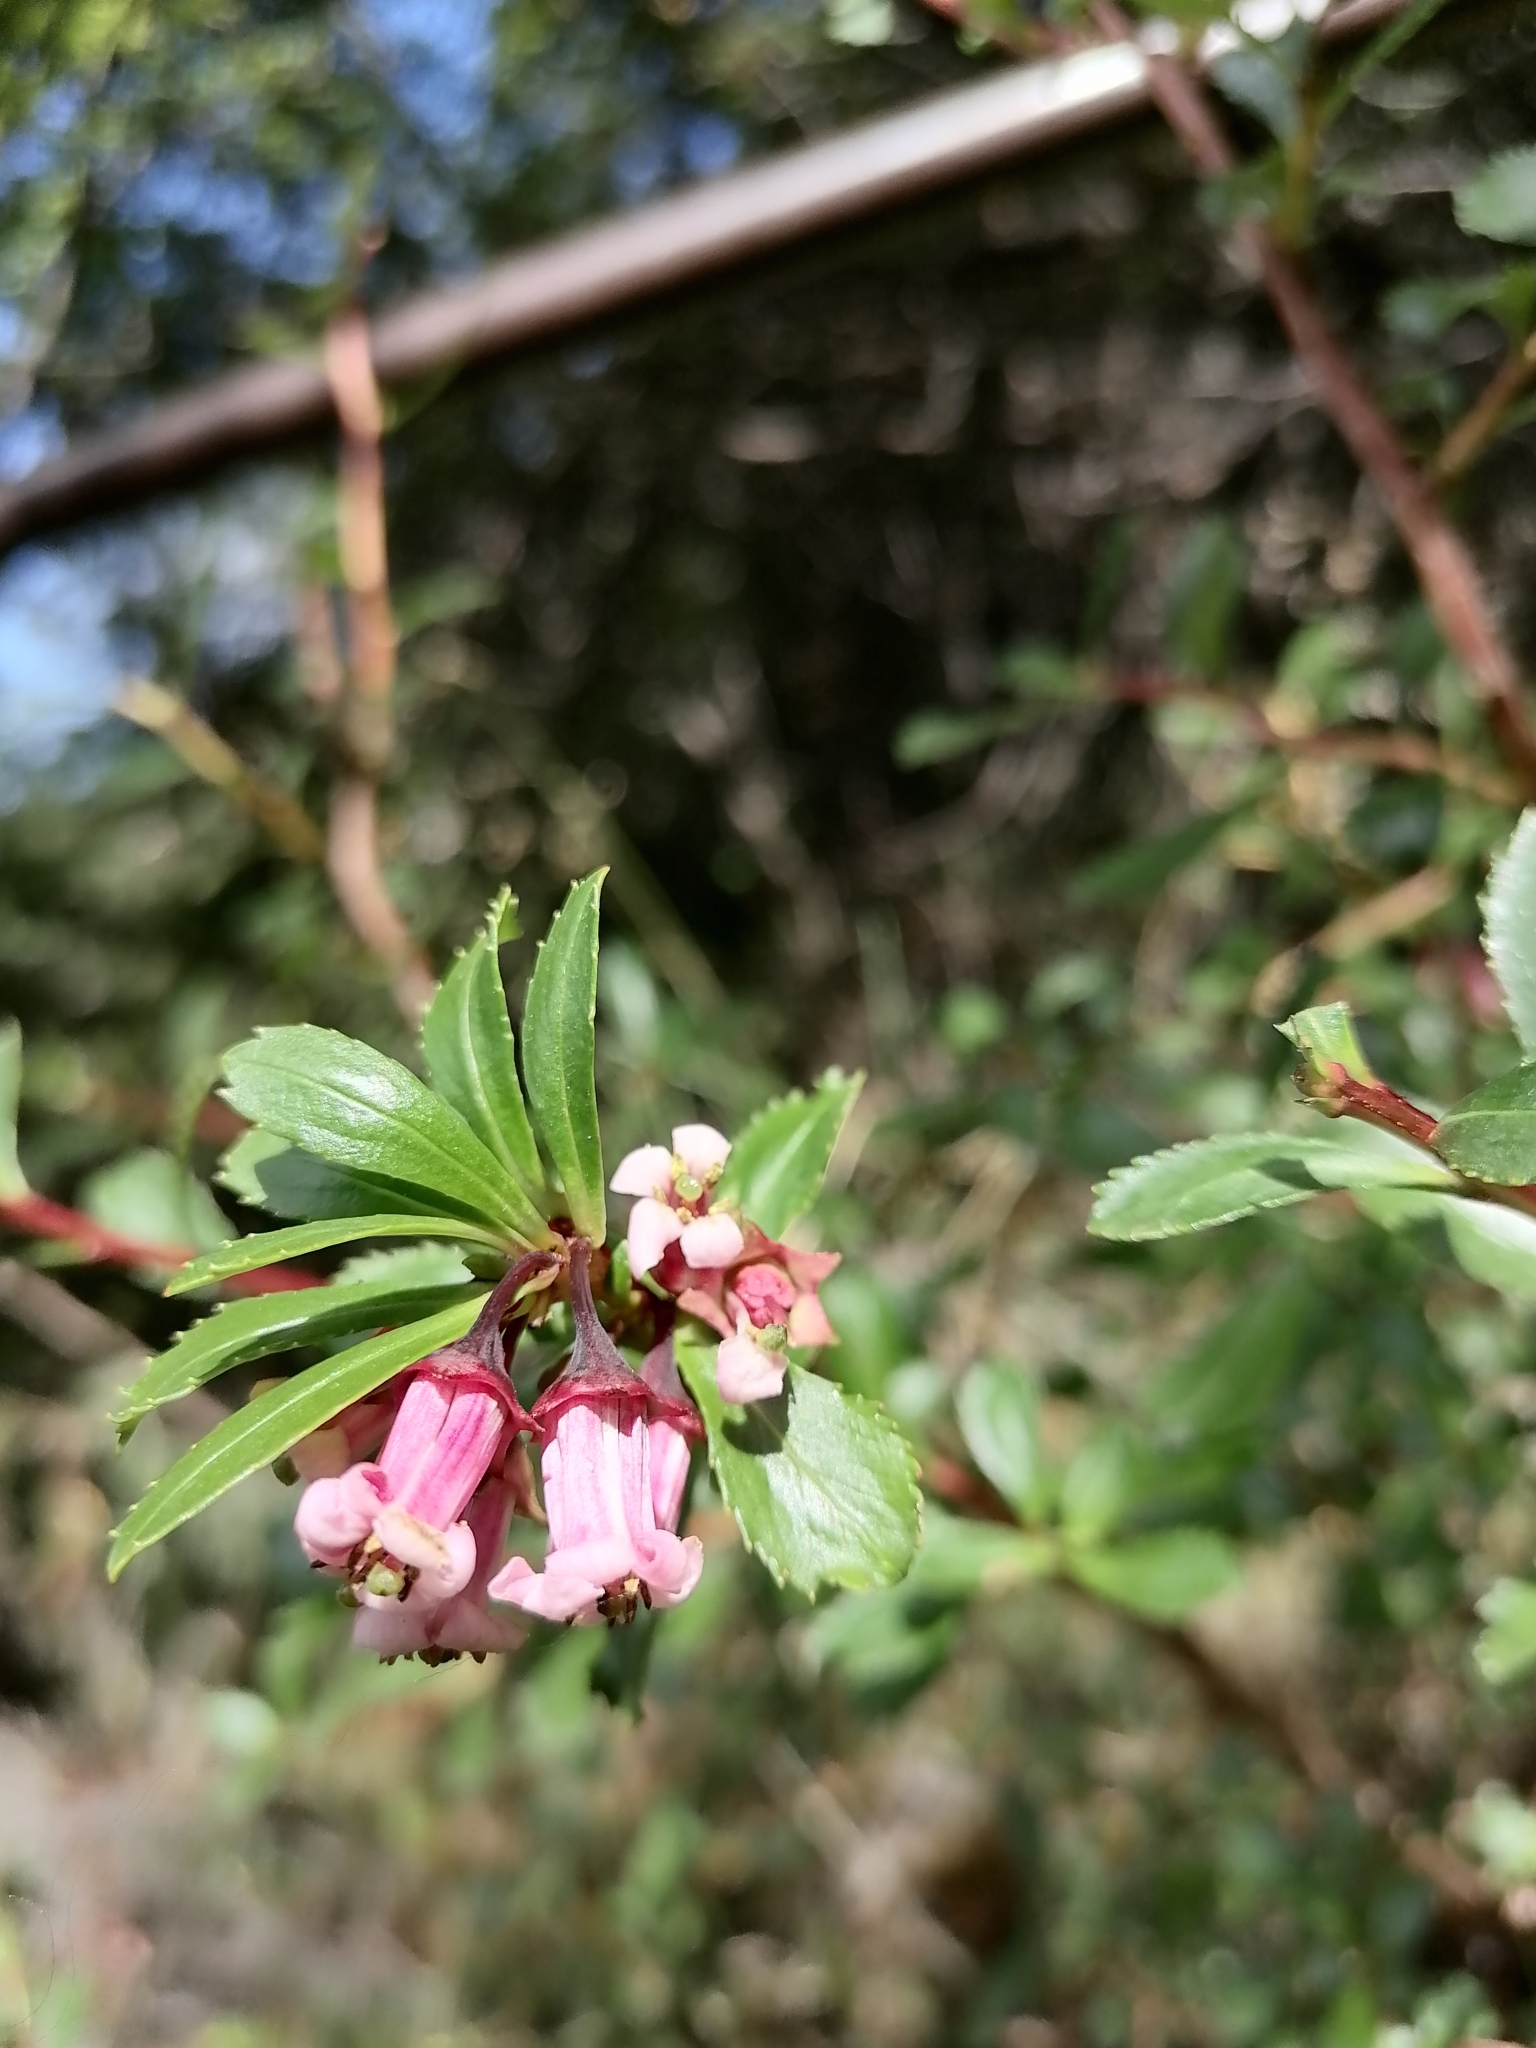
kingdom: Plantae
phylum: Tracheophyta
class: Magnoliopsida
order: Escalloniales
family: Escalloniaceae
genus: Escallonia
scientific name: Escallonia alpina
